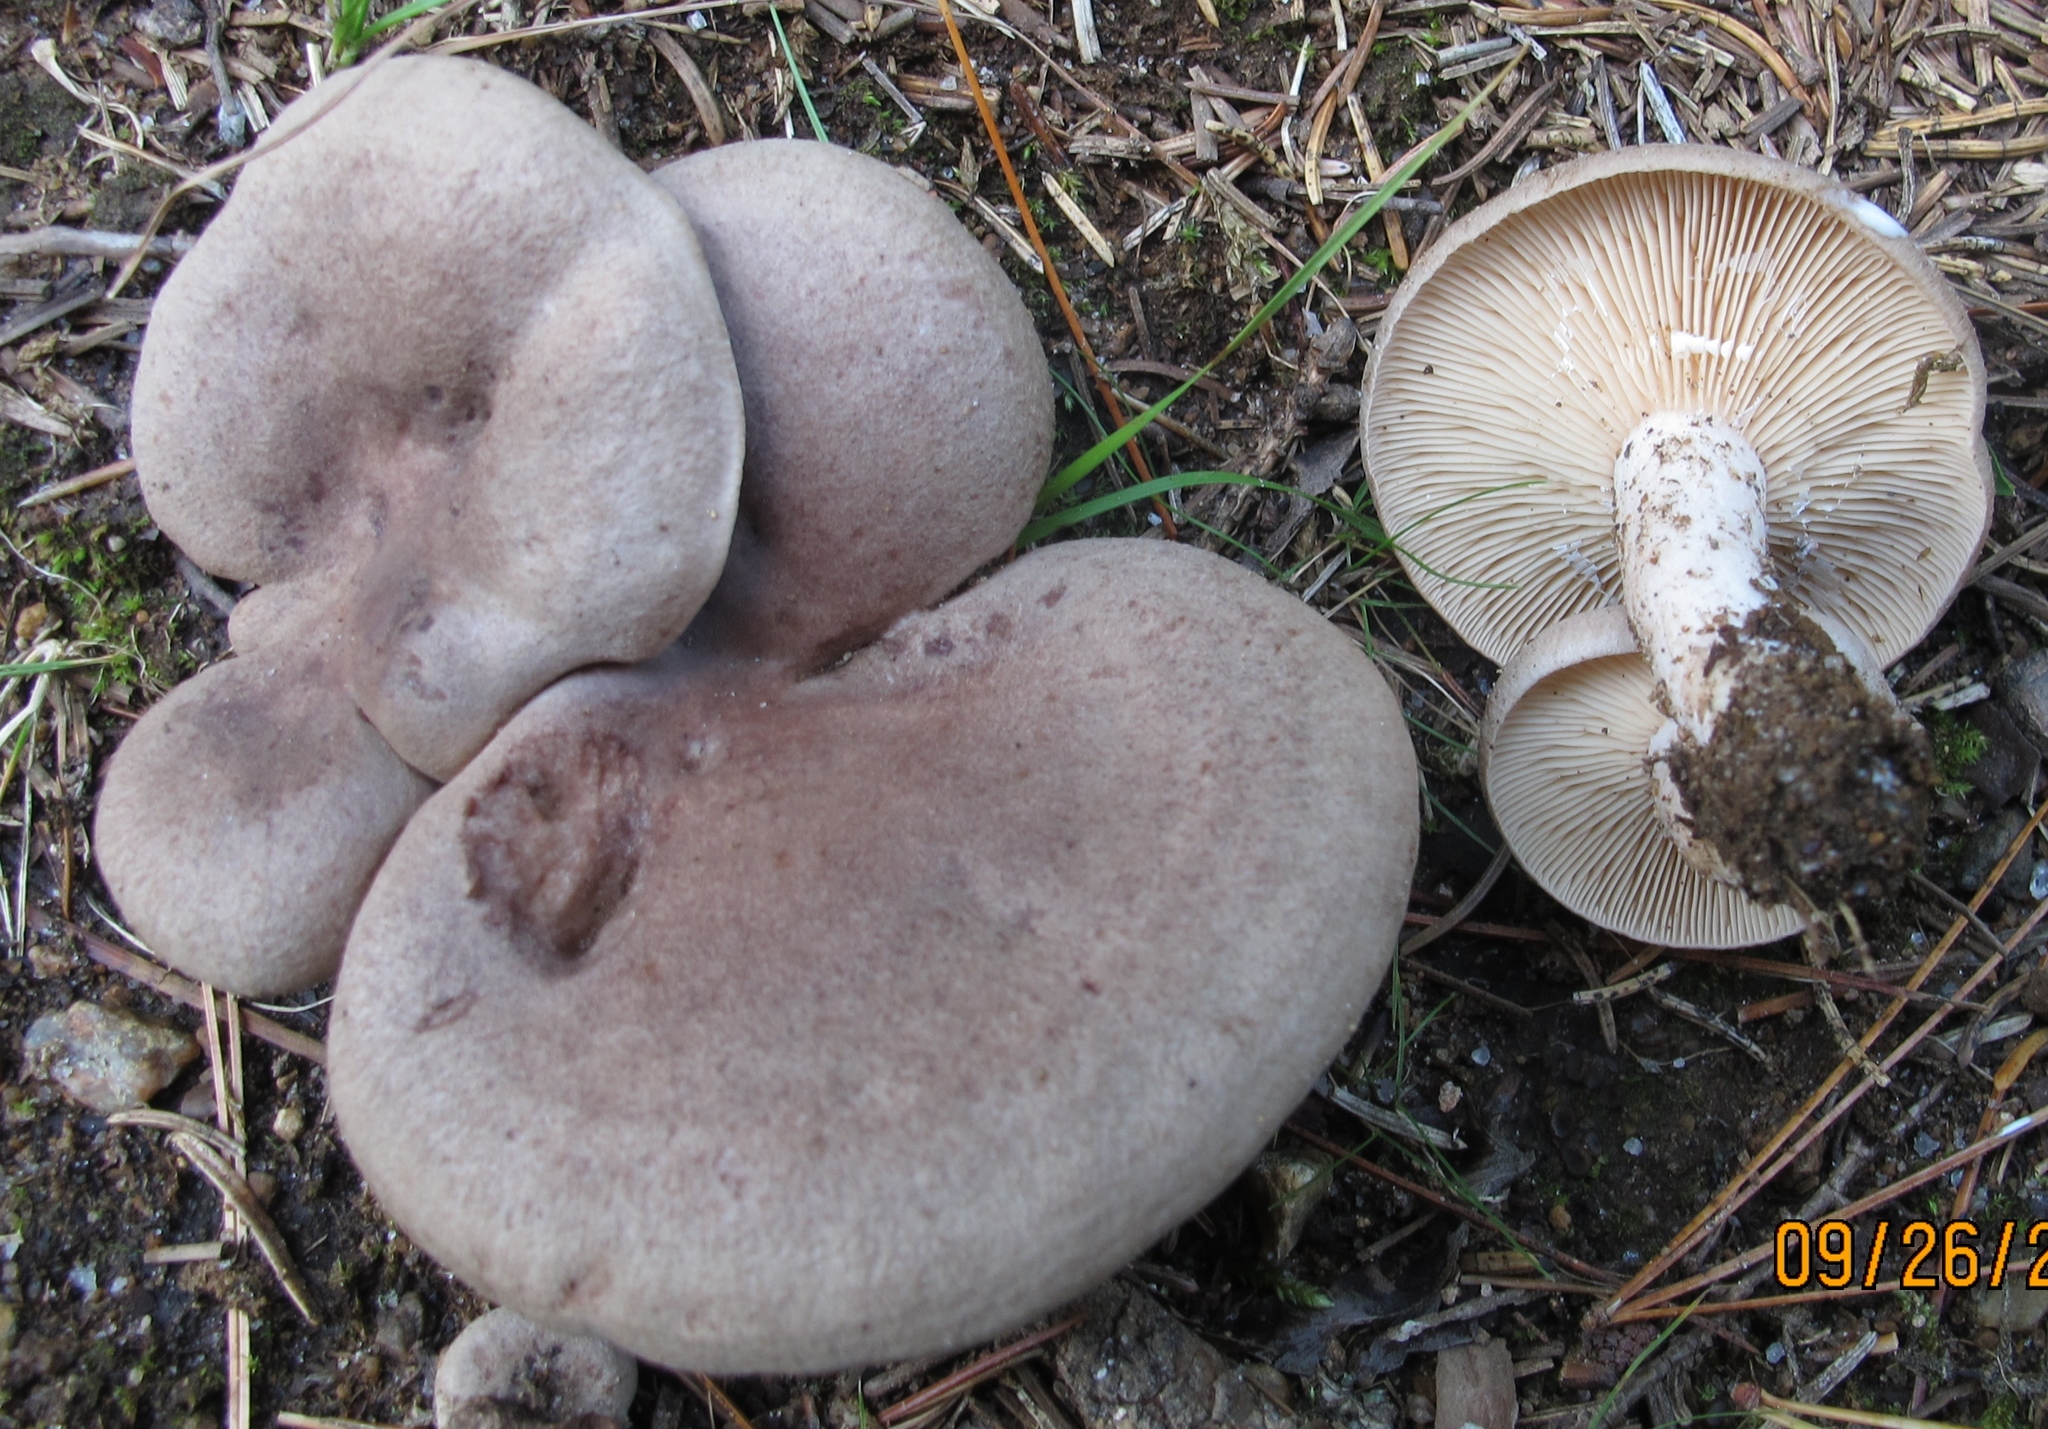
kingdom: Fungi
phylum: Basidiomycota
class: Agaricomycetes
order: Russulales
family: Russulaceae
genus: Lactarius
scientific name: Lactarius mammosus
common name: Pap milkcap
